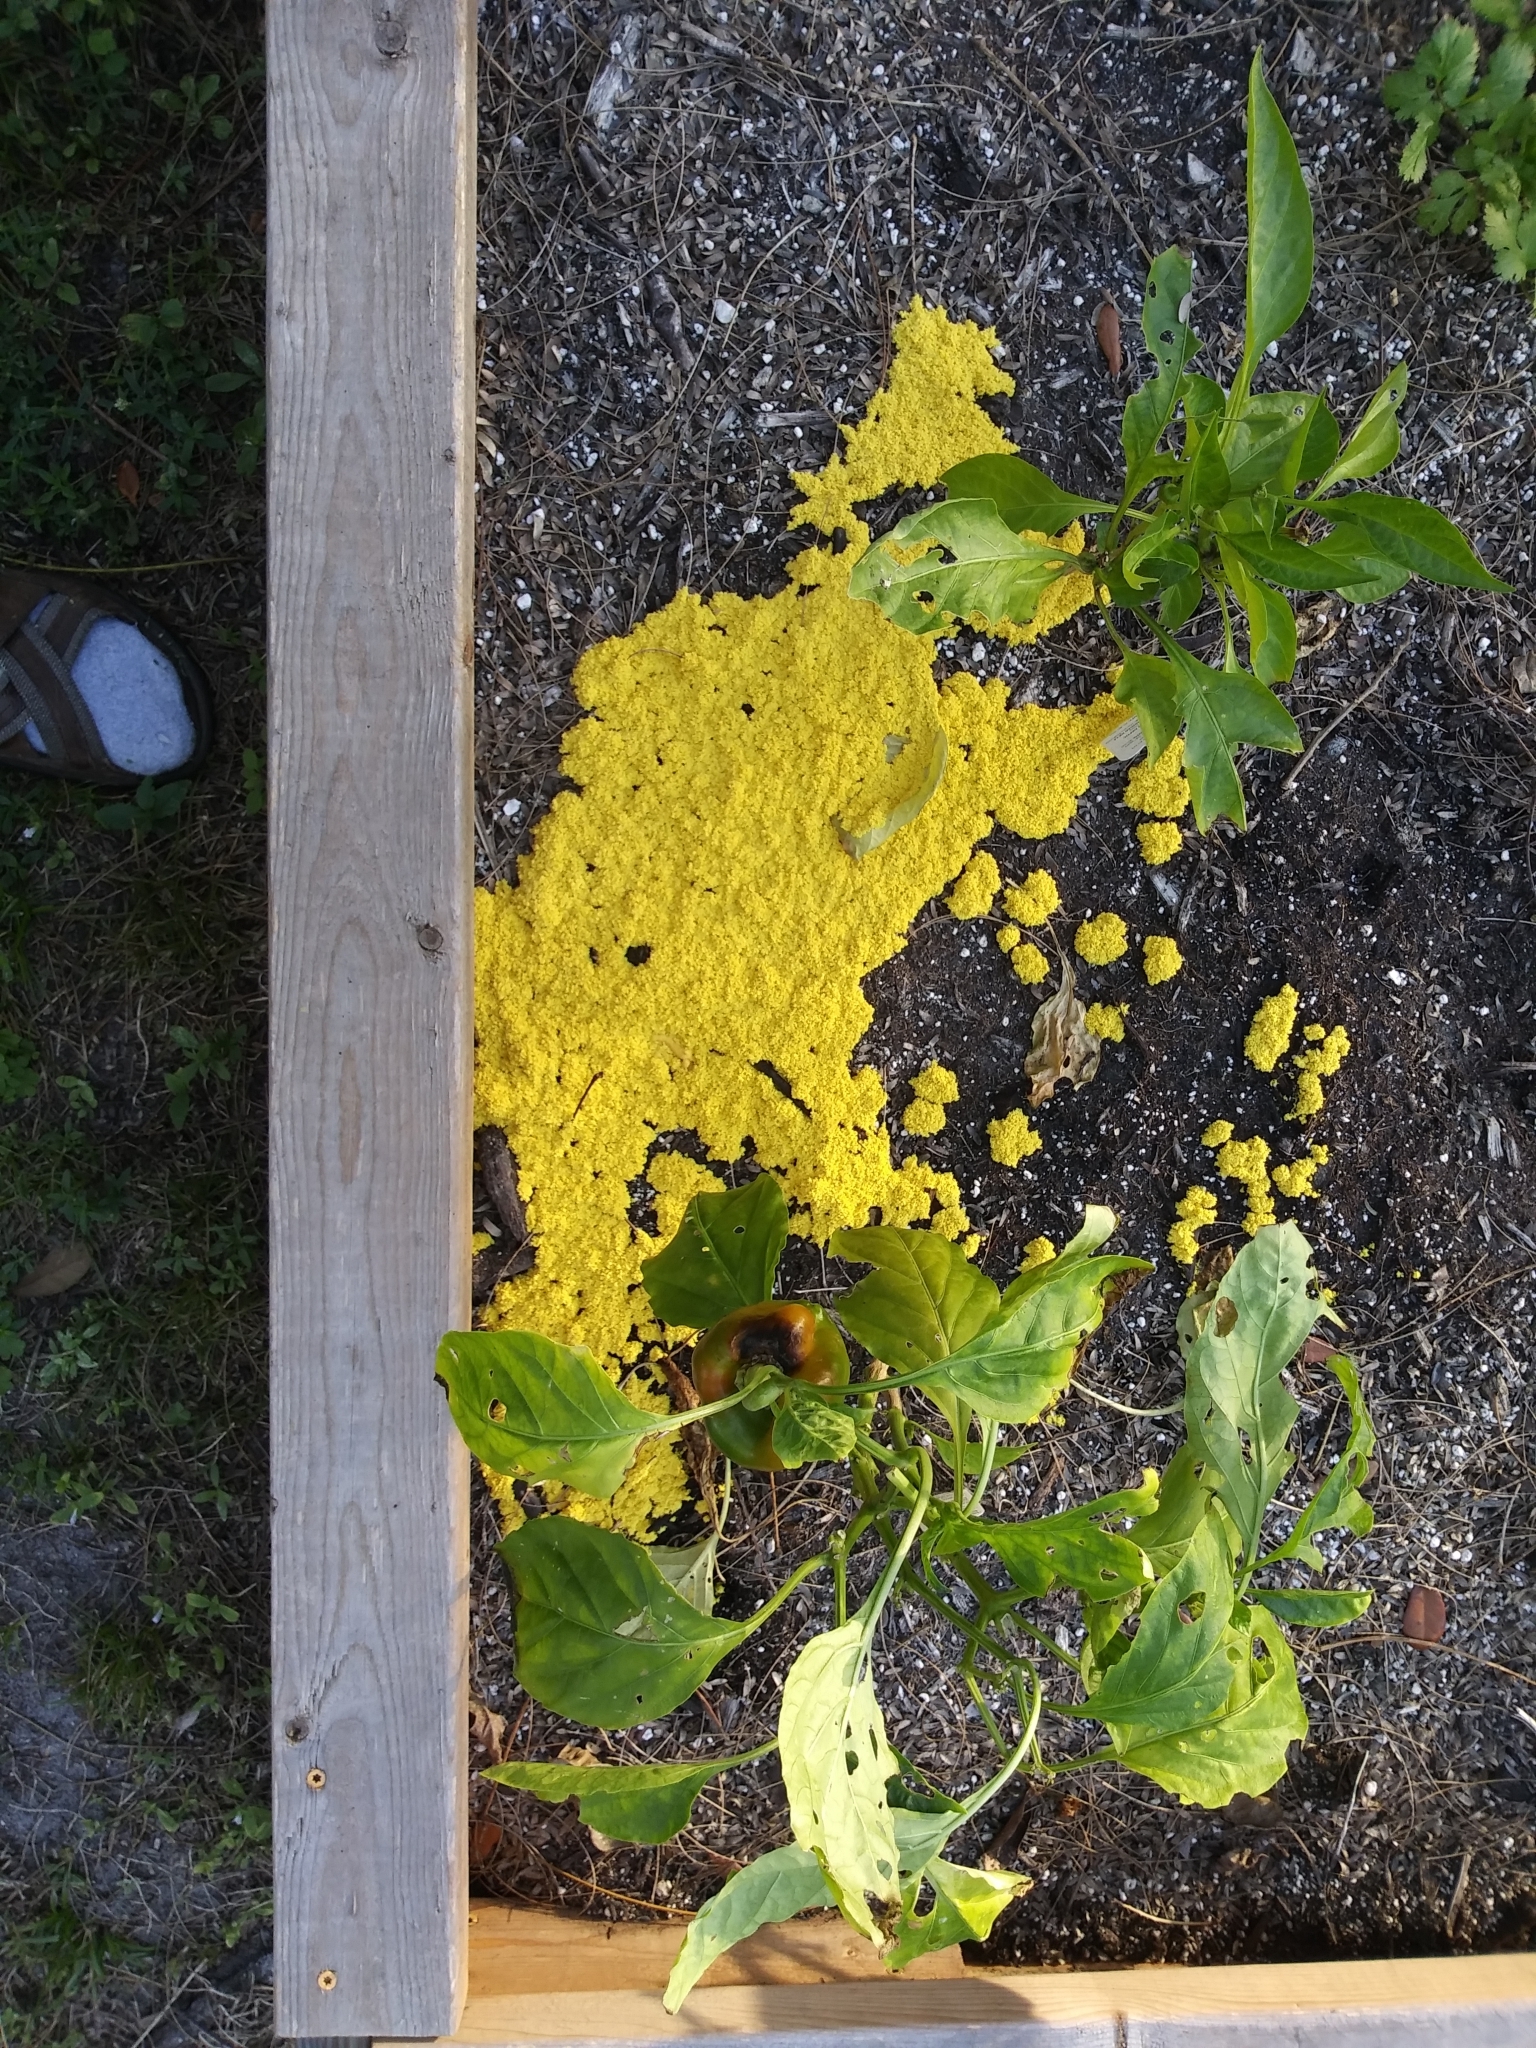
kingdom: Protozoa
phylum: Mycetozoa
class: Myxomycetes
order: Physarales
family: Physaraceae
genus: Fuligo
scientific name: Fuligo septica
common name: Dog vomit slime mold
